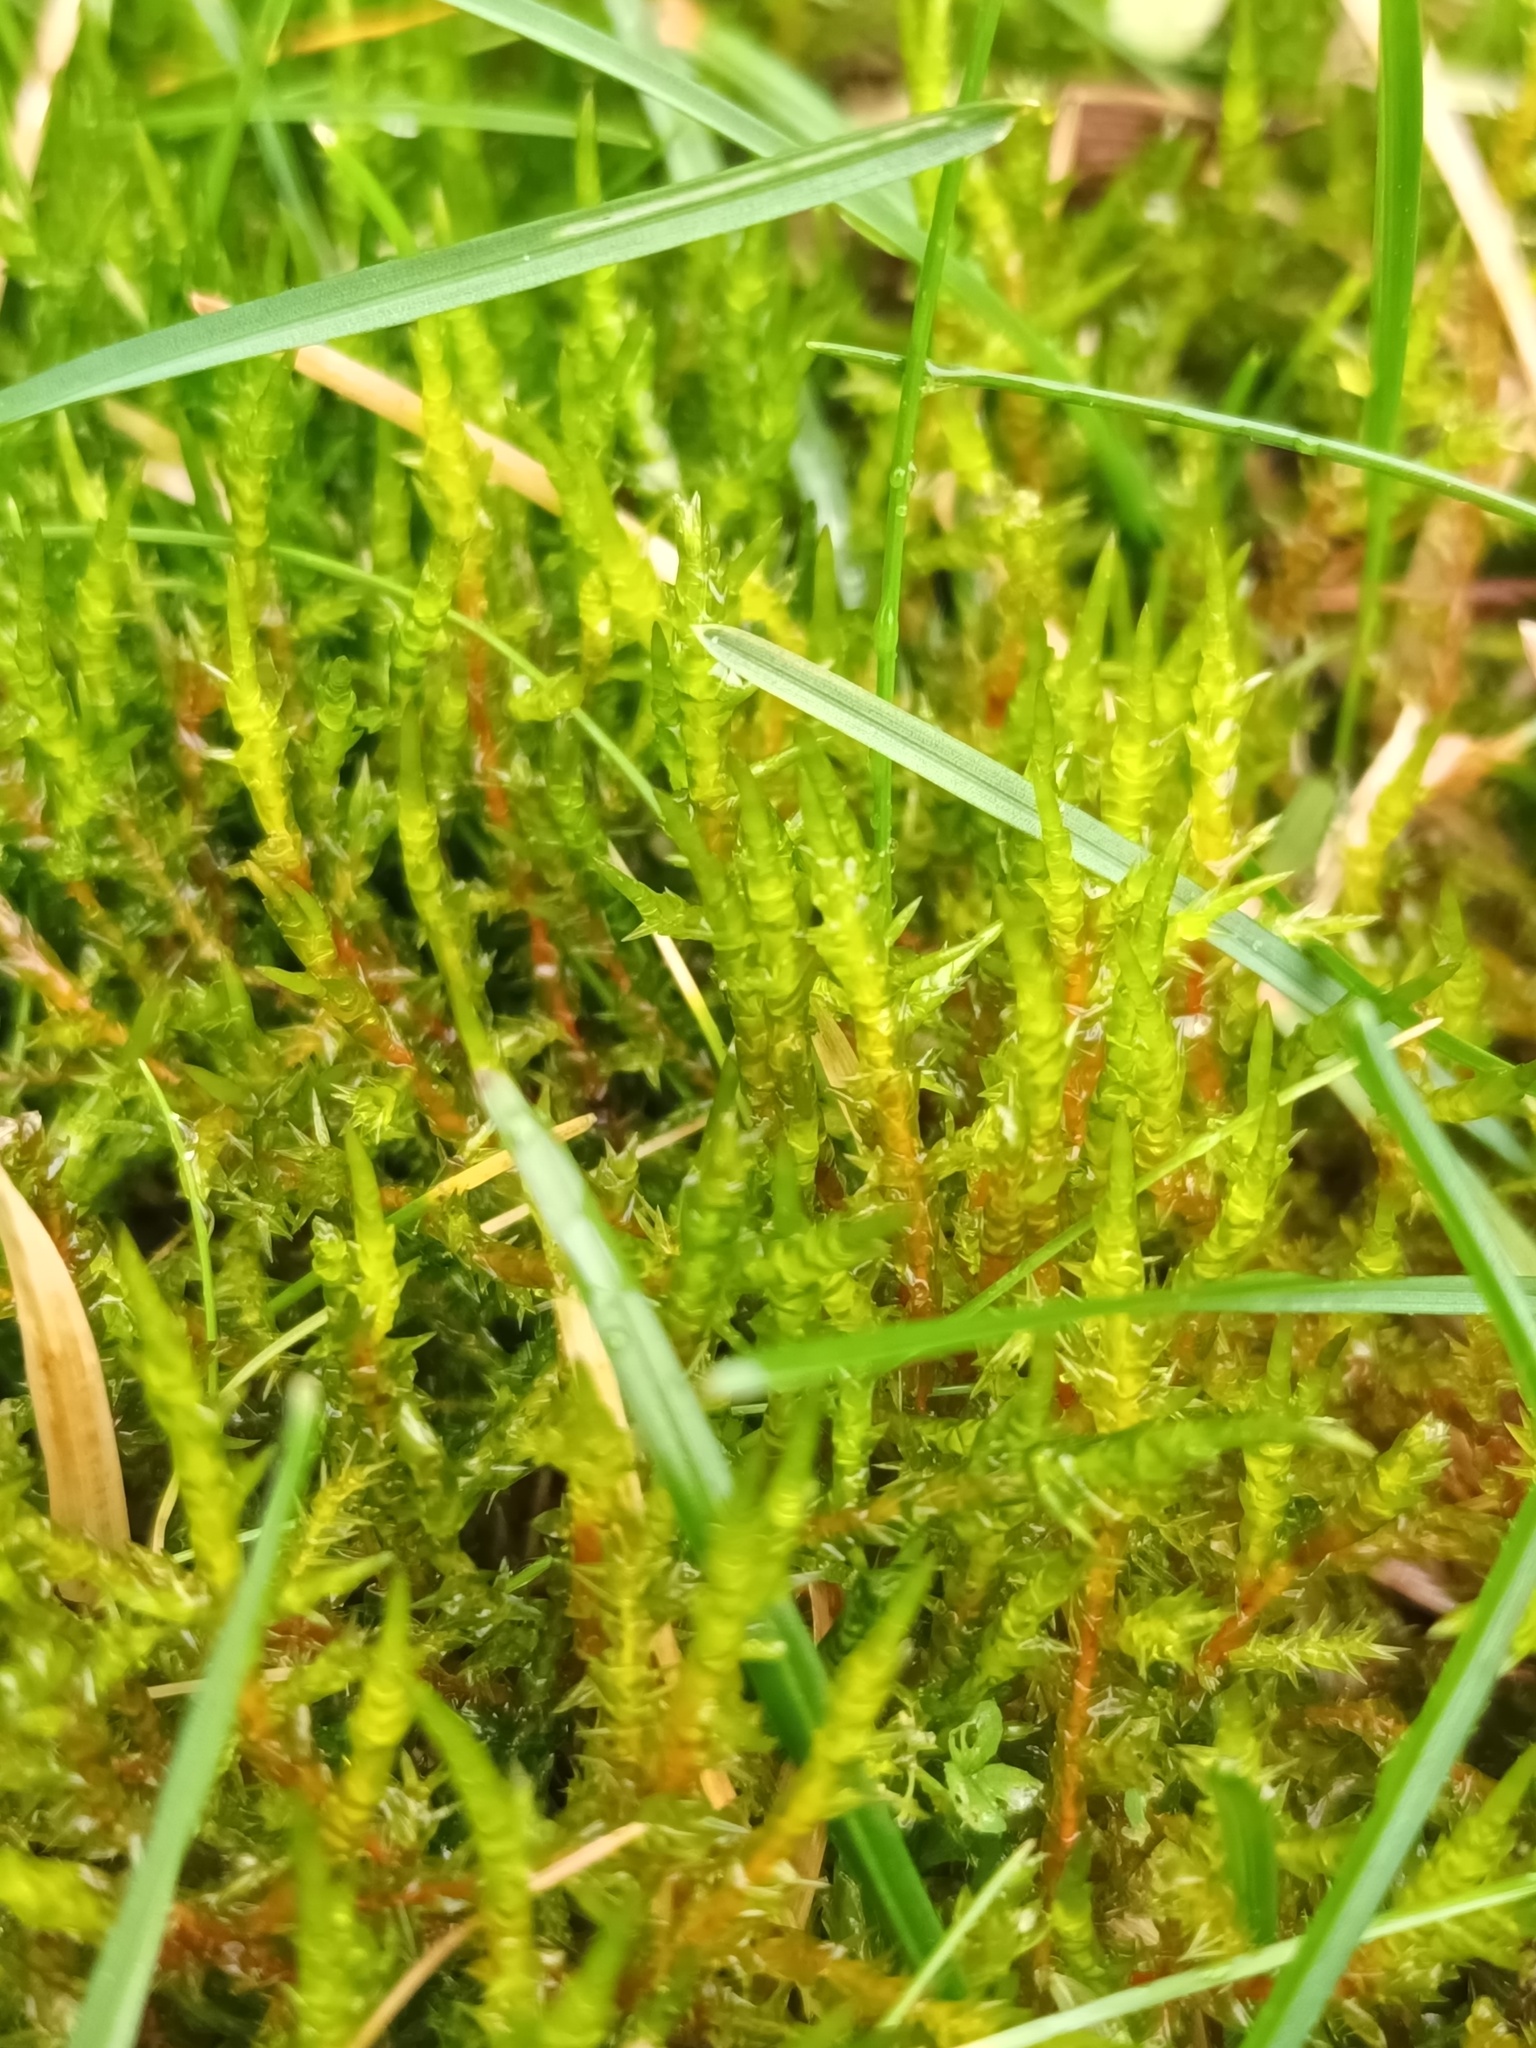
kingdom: Plantae
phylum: Bryophyta
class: Bryopsida
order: Hypnales
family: Pylaisiaceae
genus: Calliergonella
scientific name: Calliergonella cuspidata
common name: Common large wetland moss
